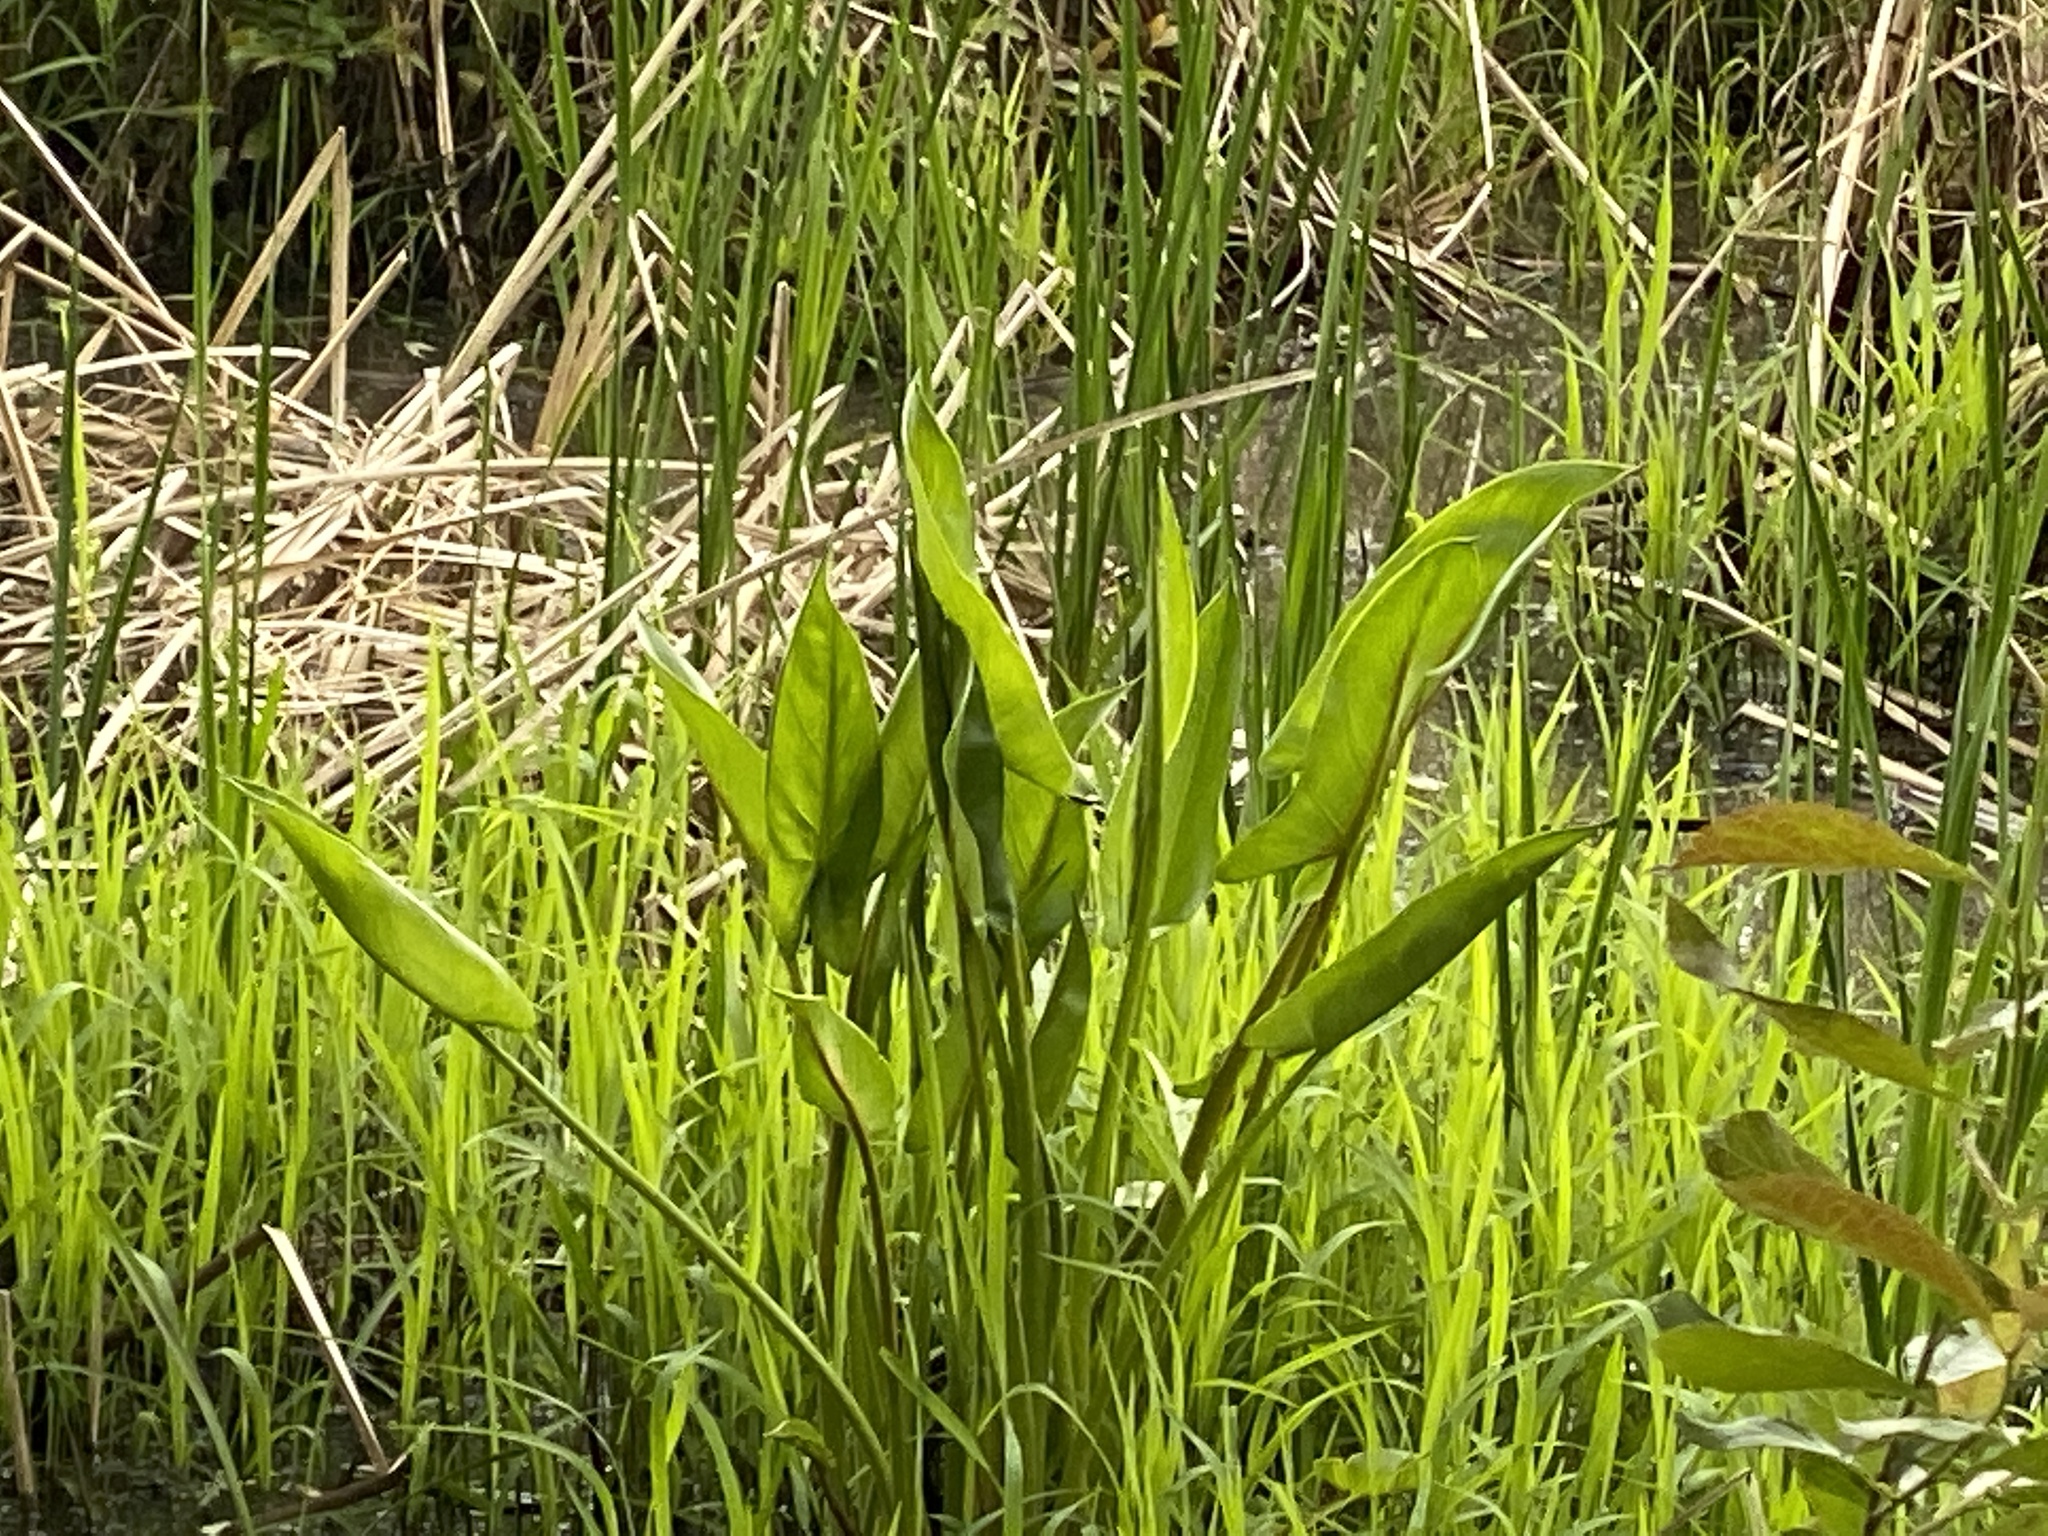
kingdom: Plantae
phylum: Tracheophyta
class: Liliopsida
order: Alismatales
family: Araceae
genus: Peltandra
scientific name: Peltandra virginica
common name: Arrow arum
